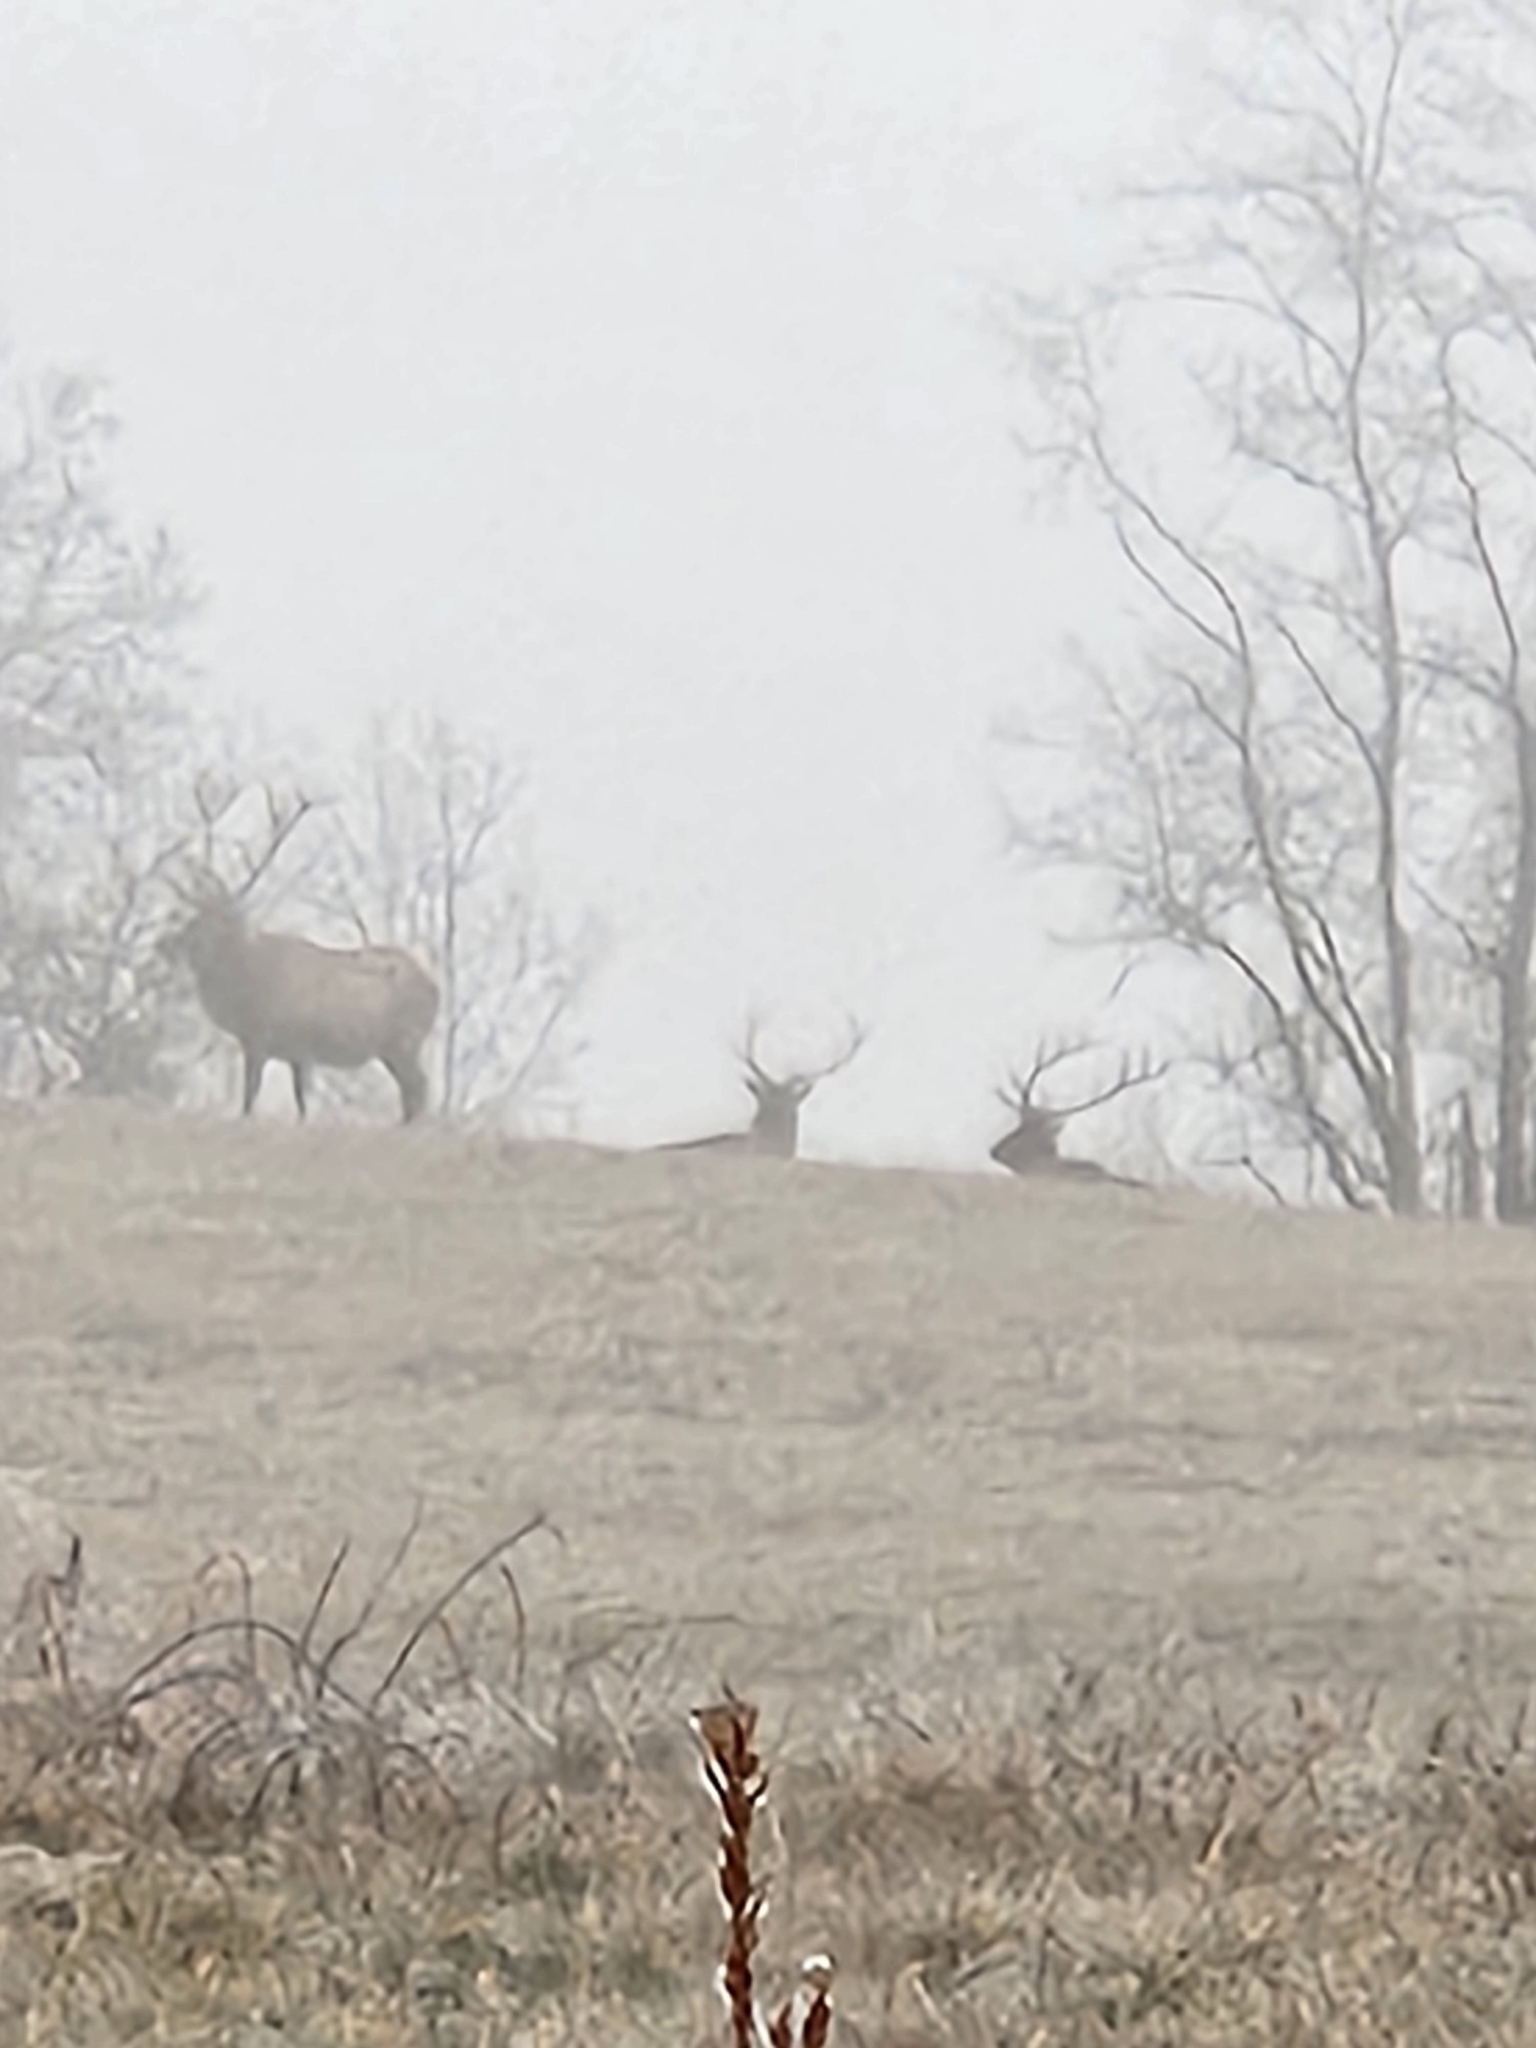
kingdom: Animalia
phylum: Chordata
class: Mammalia
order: Artiodactyla
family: Cervidae
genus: Cervus
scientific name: Cervus elaphus
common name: Red deer
